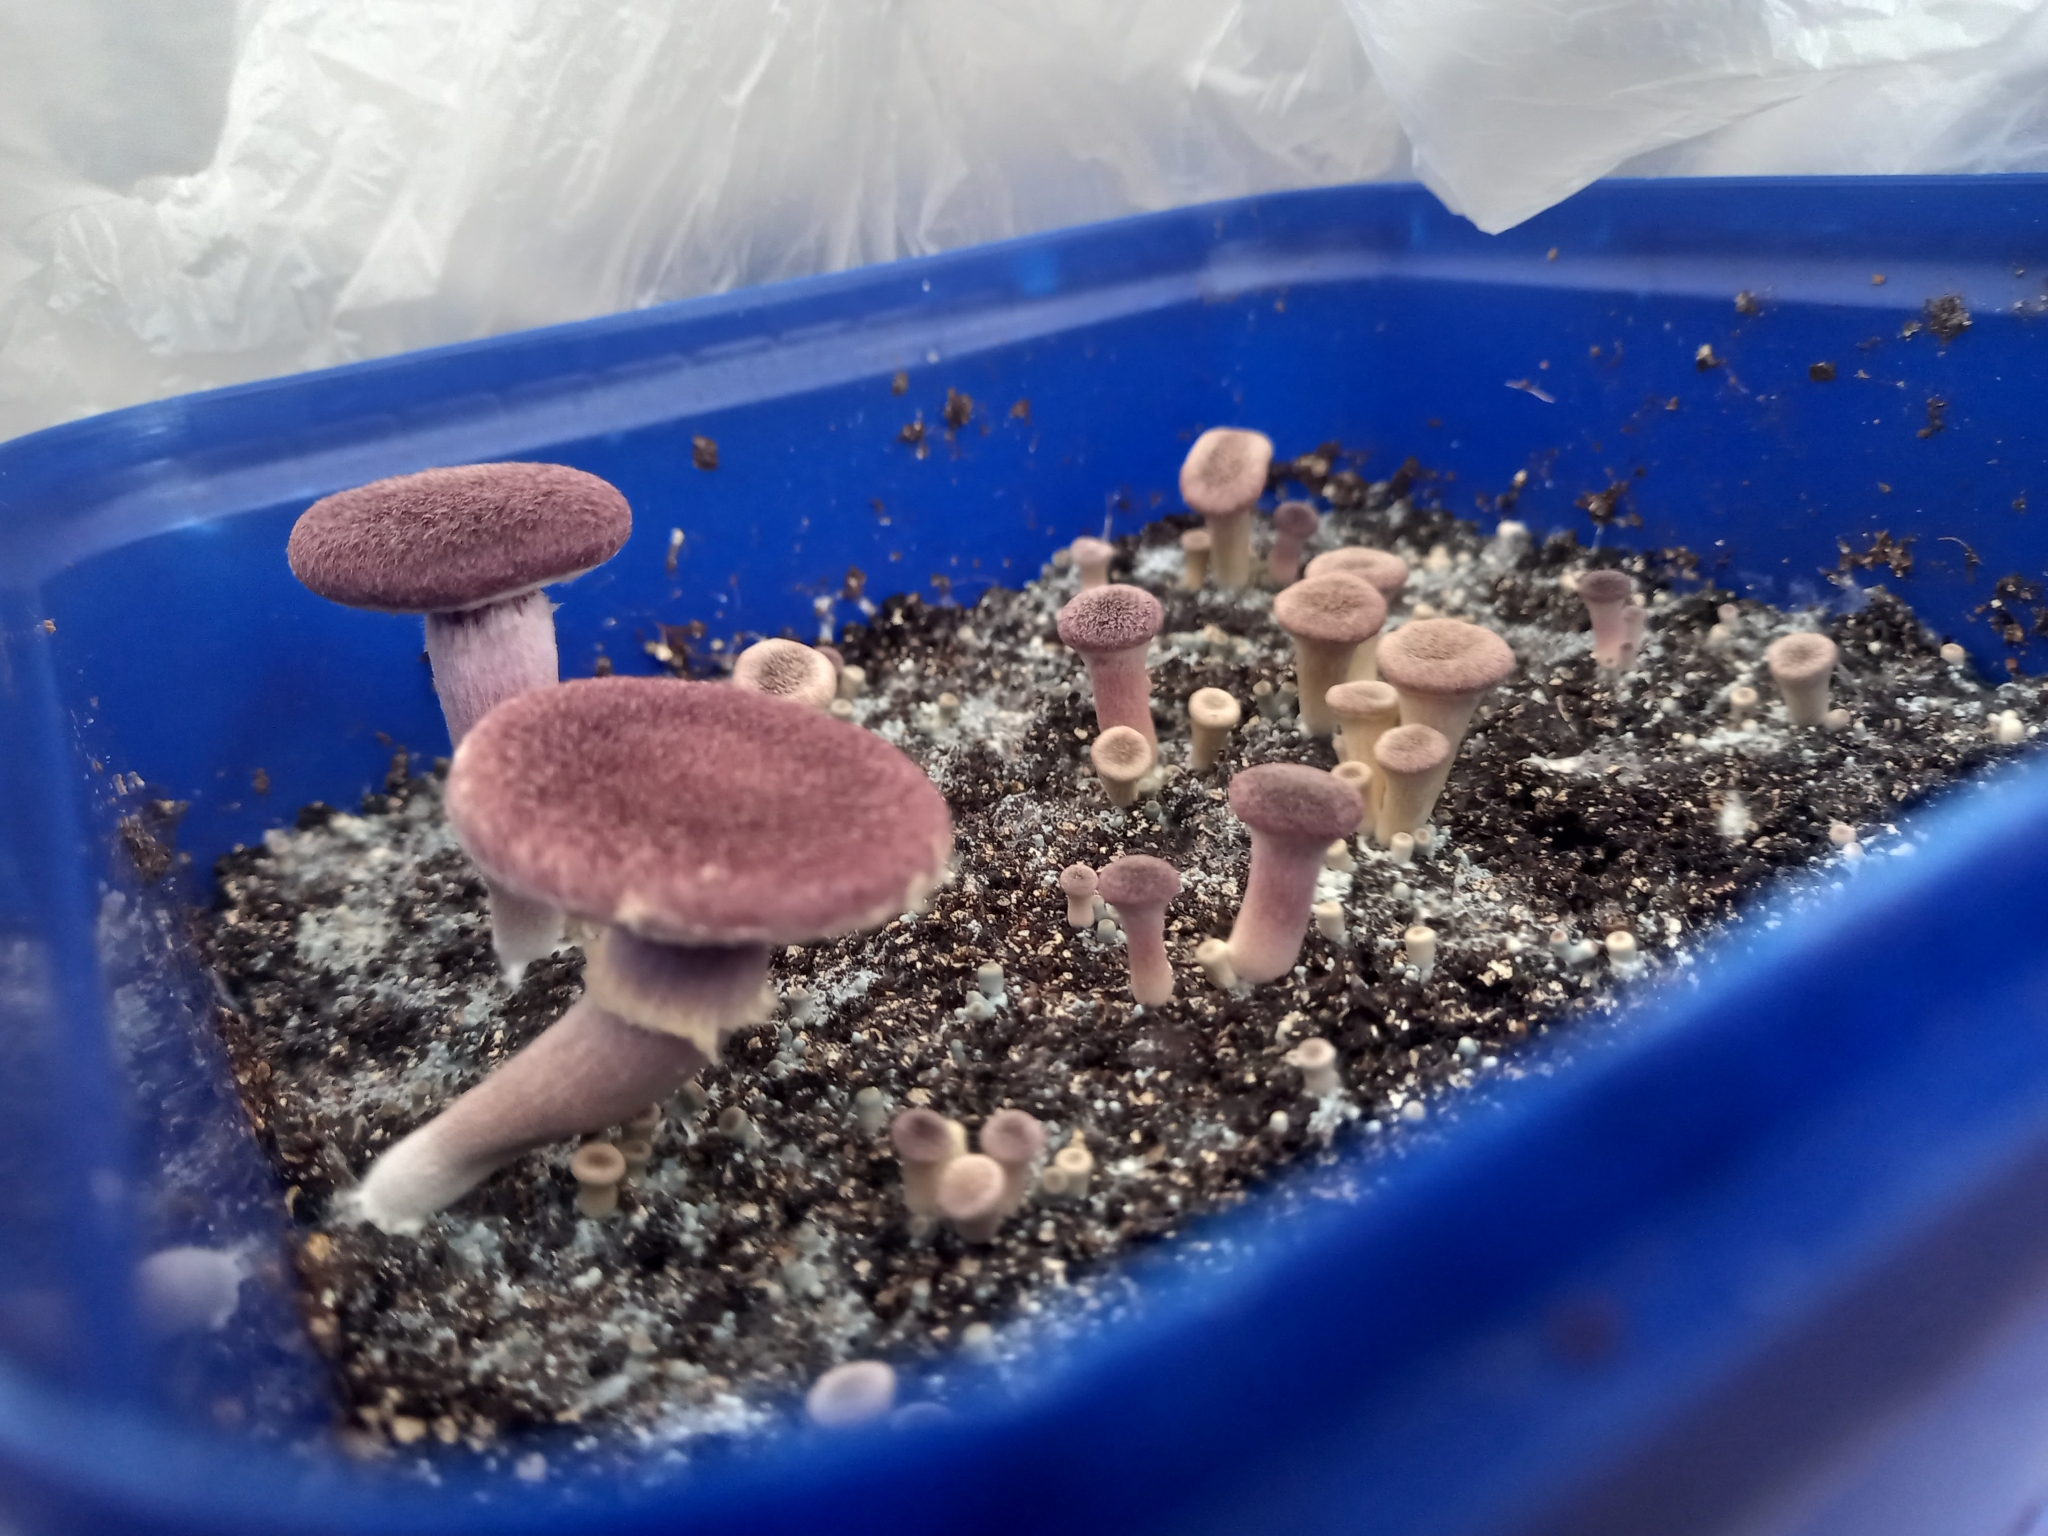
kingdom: Fungi
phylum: Basidiomycota
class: Agaricomycetes
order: Agaricales
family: Hymenogastraceae
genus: Gymnopilus
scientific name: Gymnopilus purpuratus
